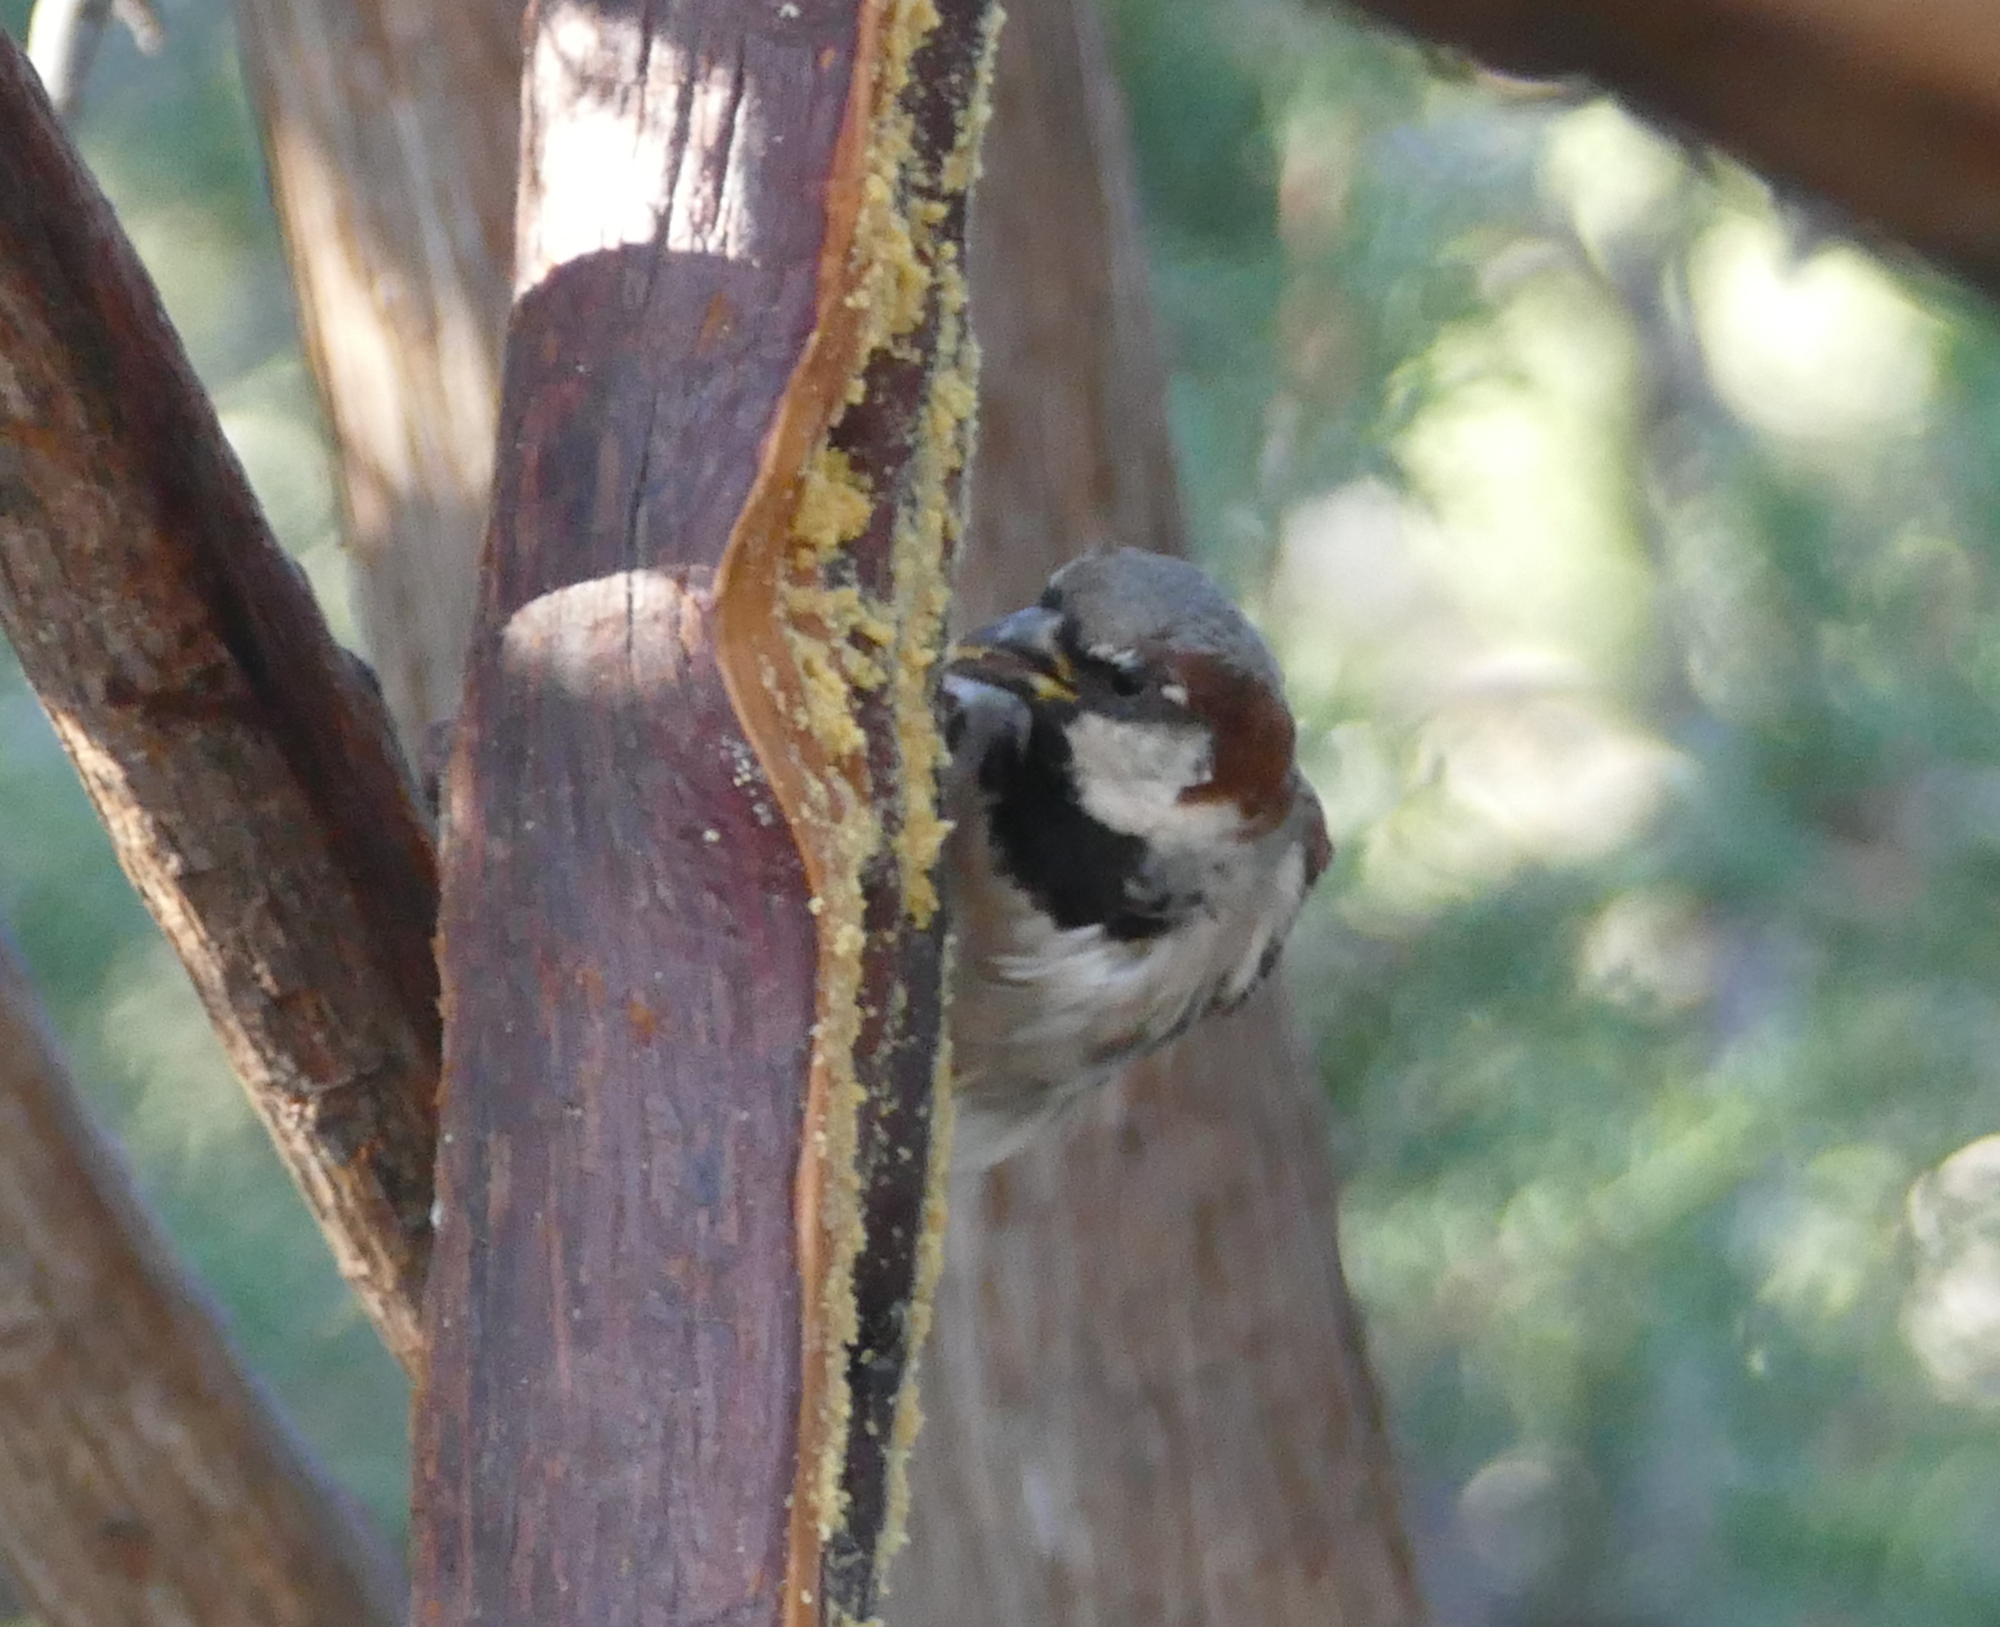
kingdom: Animalia
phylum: Chordata
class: Aves
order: Passeriformes
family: Passeridae
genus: Passer
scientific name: Passer domesticus
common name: House sparrow
